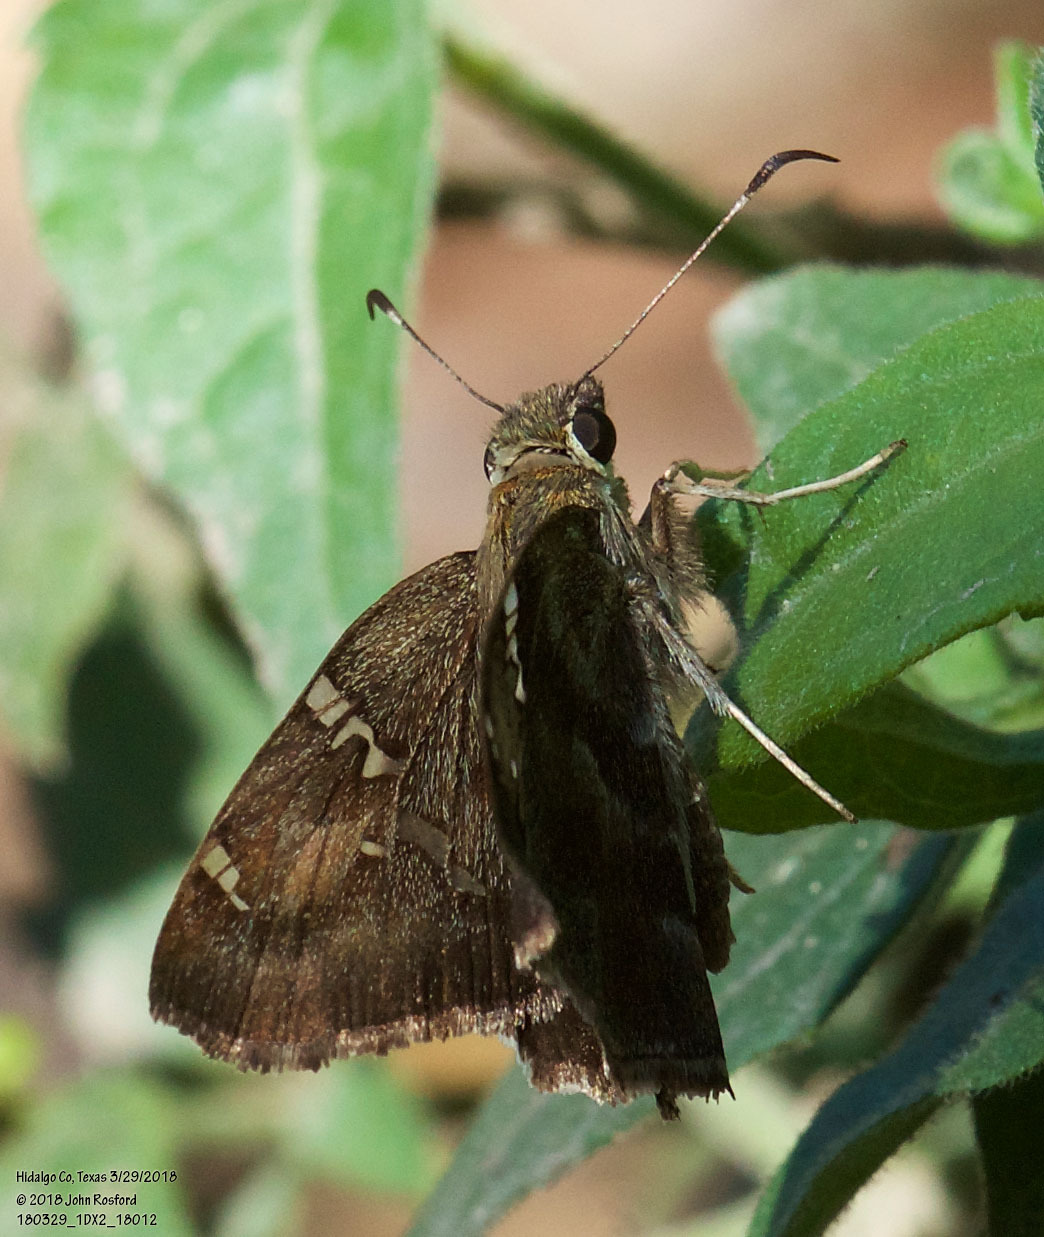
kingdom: Animalia
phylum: Arthropoda
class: Insecta
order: Lepidoptera
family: Hesperiidae
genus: Autochton
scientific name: Autochton potrillo
